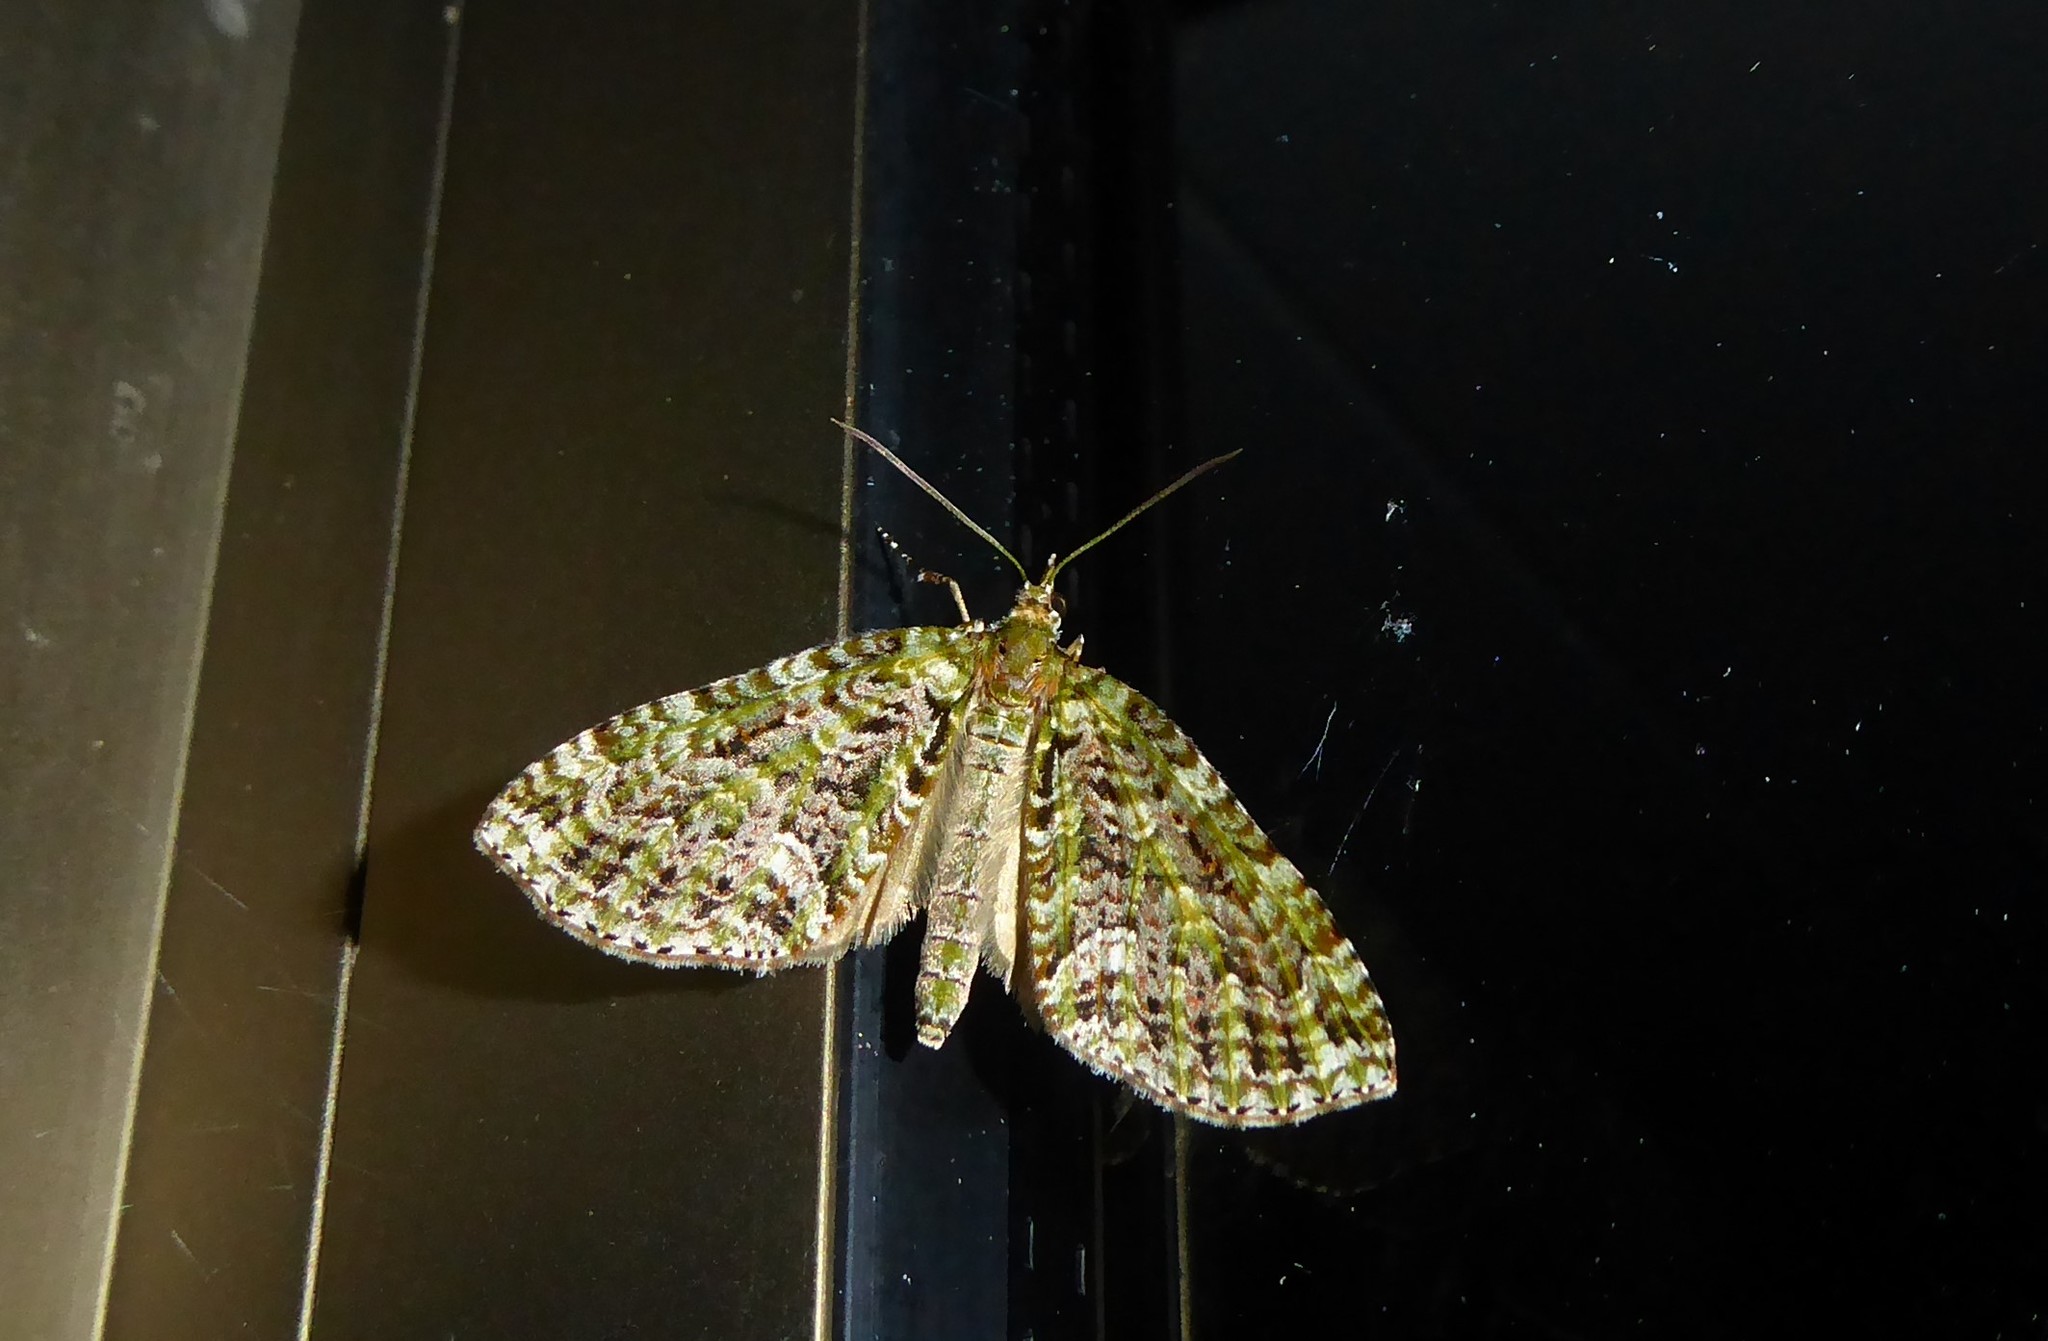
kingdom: Animalia
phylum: Arthropoda
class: Insecta
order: Lepidoptera
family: Geometridae
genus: Tatosoma
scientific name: Tatosoma agrionata
